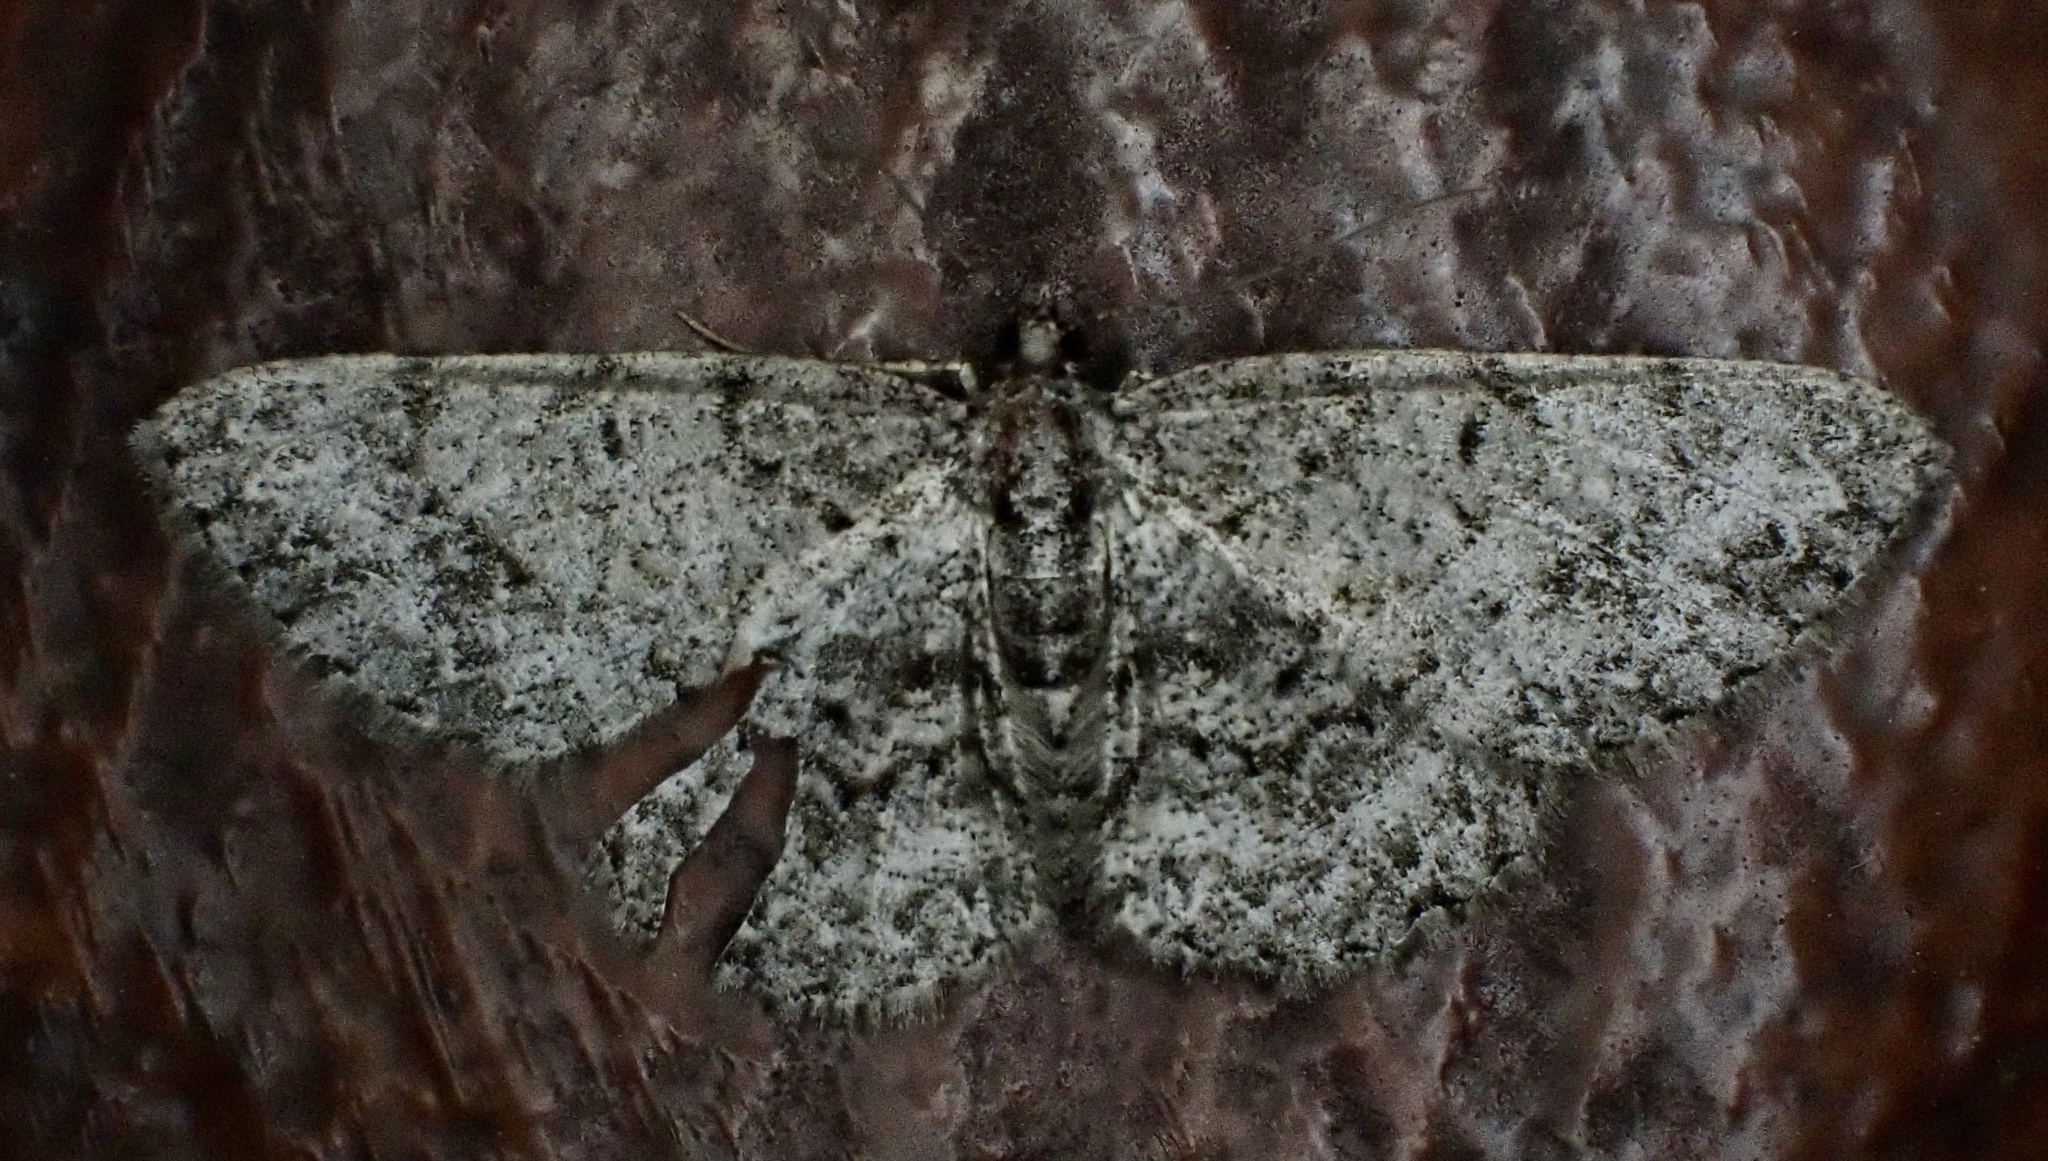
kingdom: Animalia
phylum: Arthropoda
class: Insecta
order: Lepidoptera
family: Geometridae
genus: Protoboarmia
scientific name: Protoboarmia porcelaria
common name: Porcelain gray
